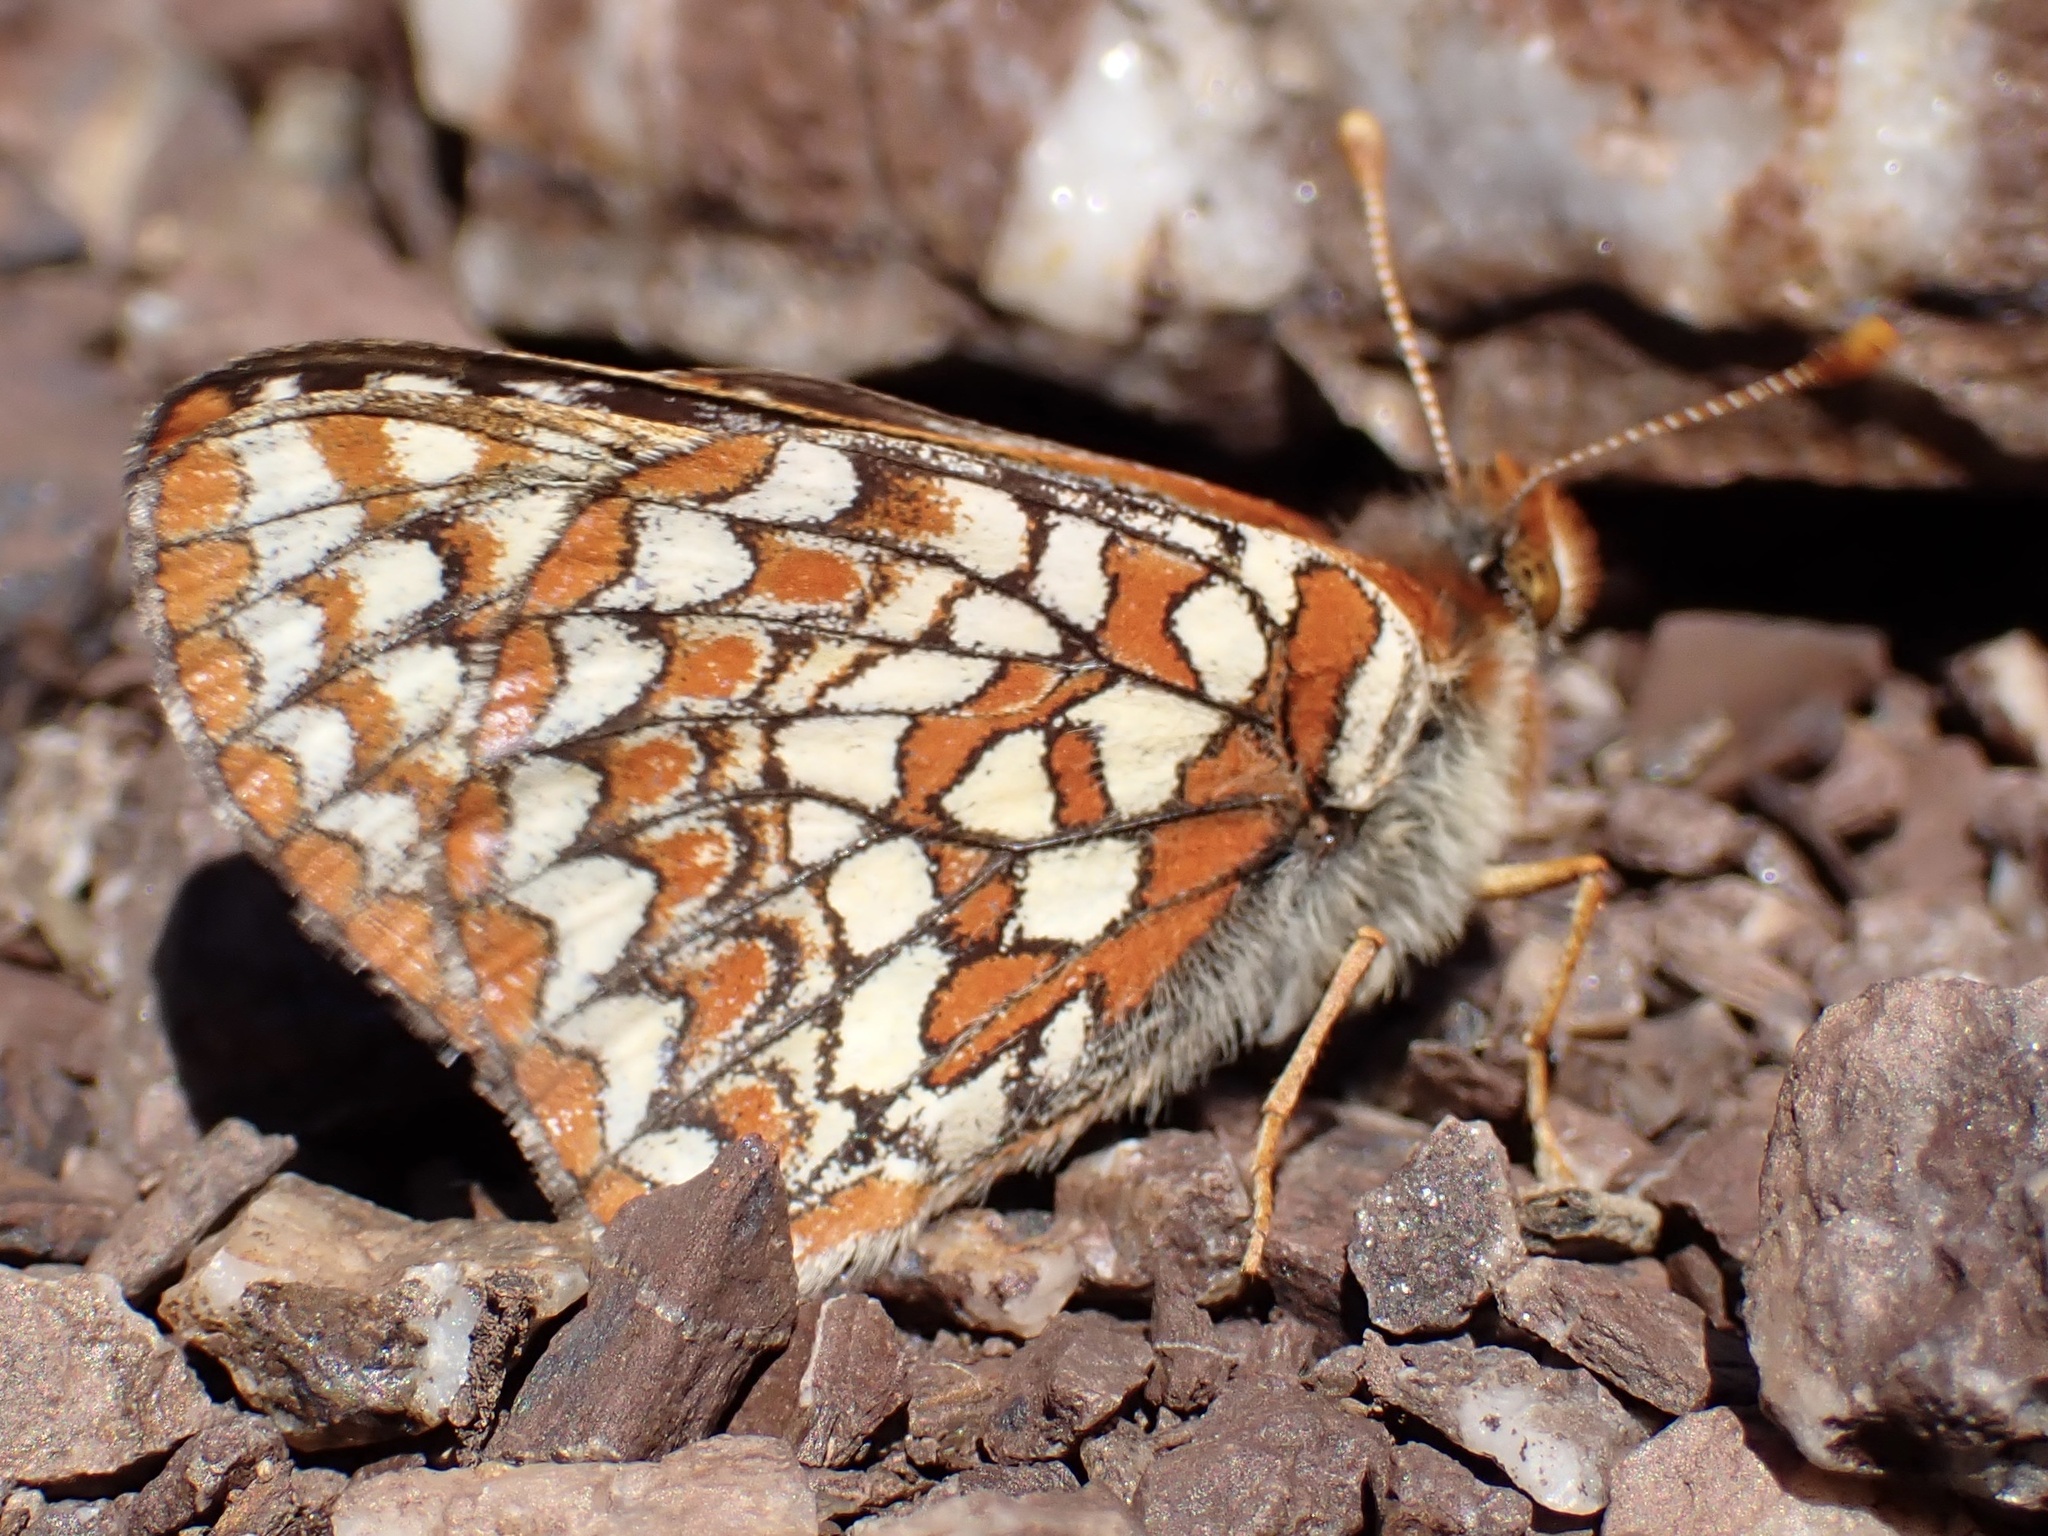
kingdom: Animalia
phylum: Arthropoda
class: Insecta
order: Lepidoptera
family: Nymphalidae
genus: Occidryas
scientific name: Occidryas editha
